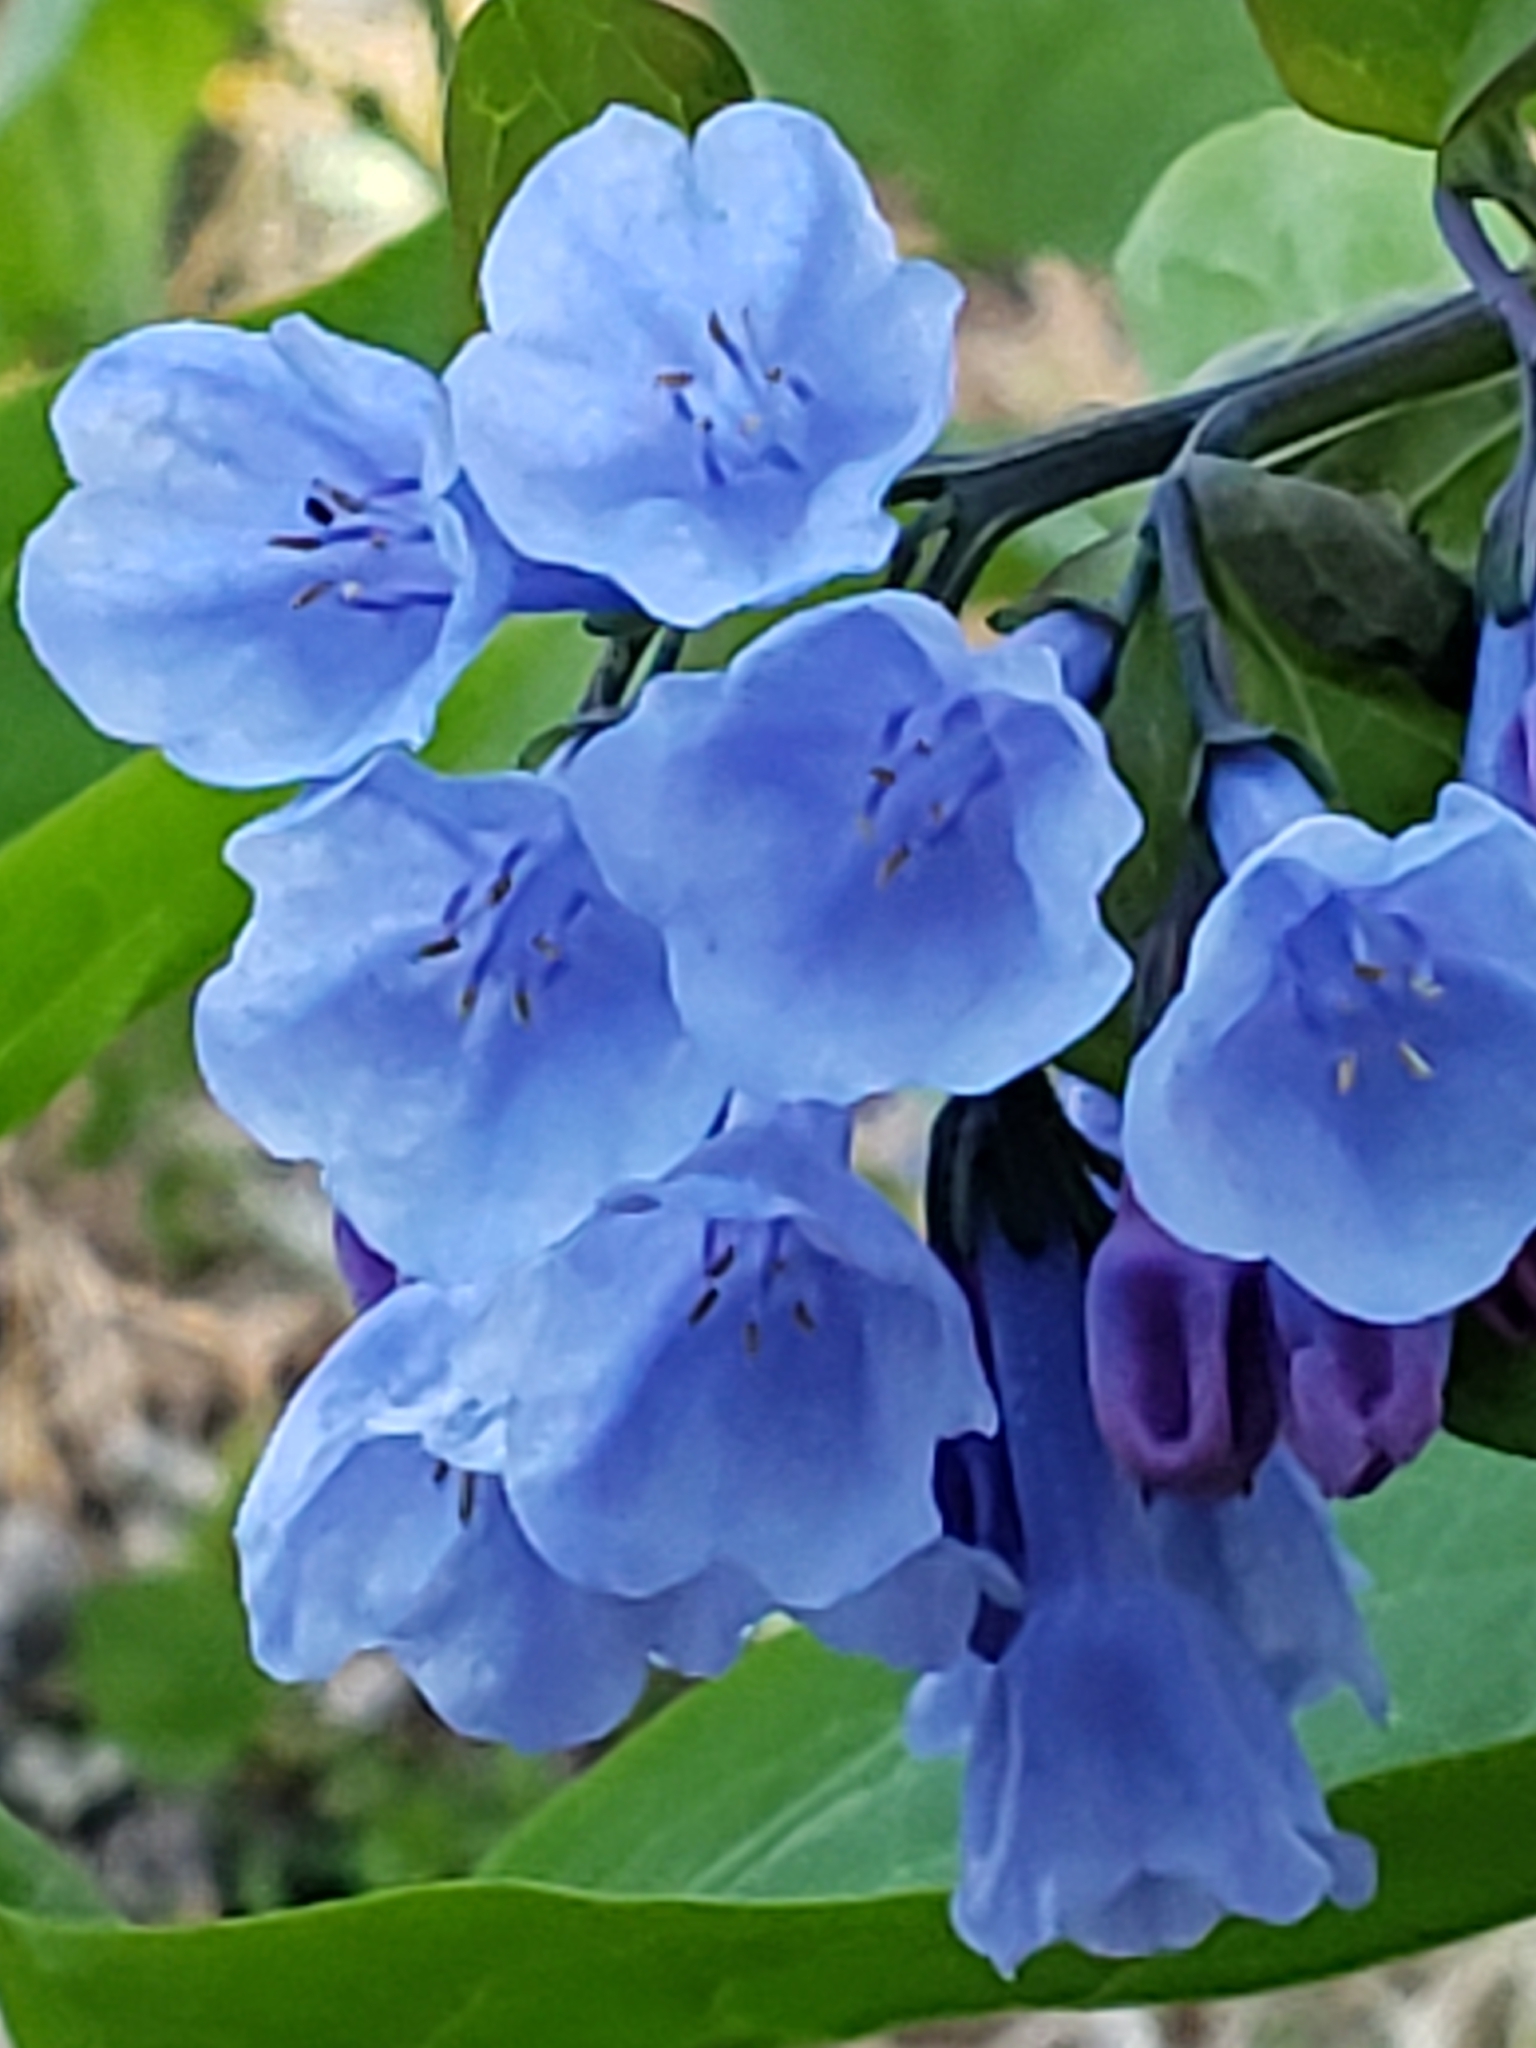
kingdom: Plantae
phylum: Tracheophyta
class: Magnoliopsida
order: Boraginales
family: Boraginaceae
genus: Mertensia
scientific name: Mertensia virginica
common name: Virginia bluebells
